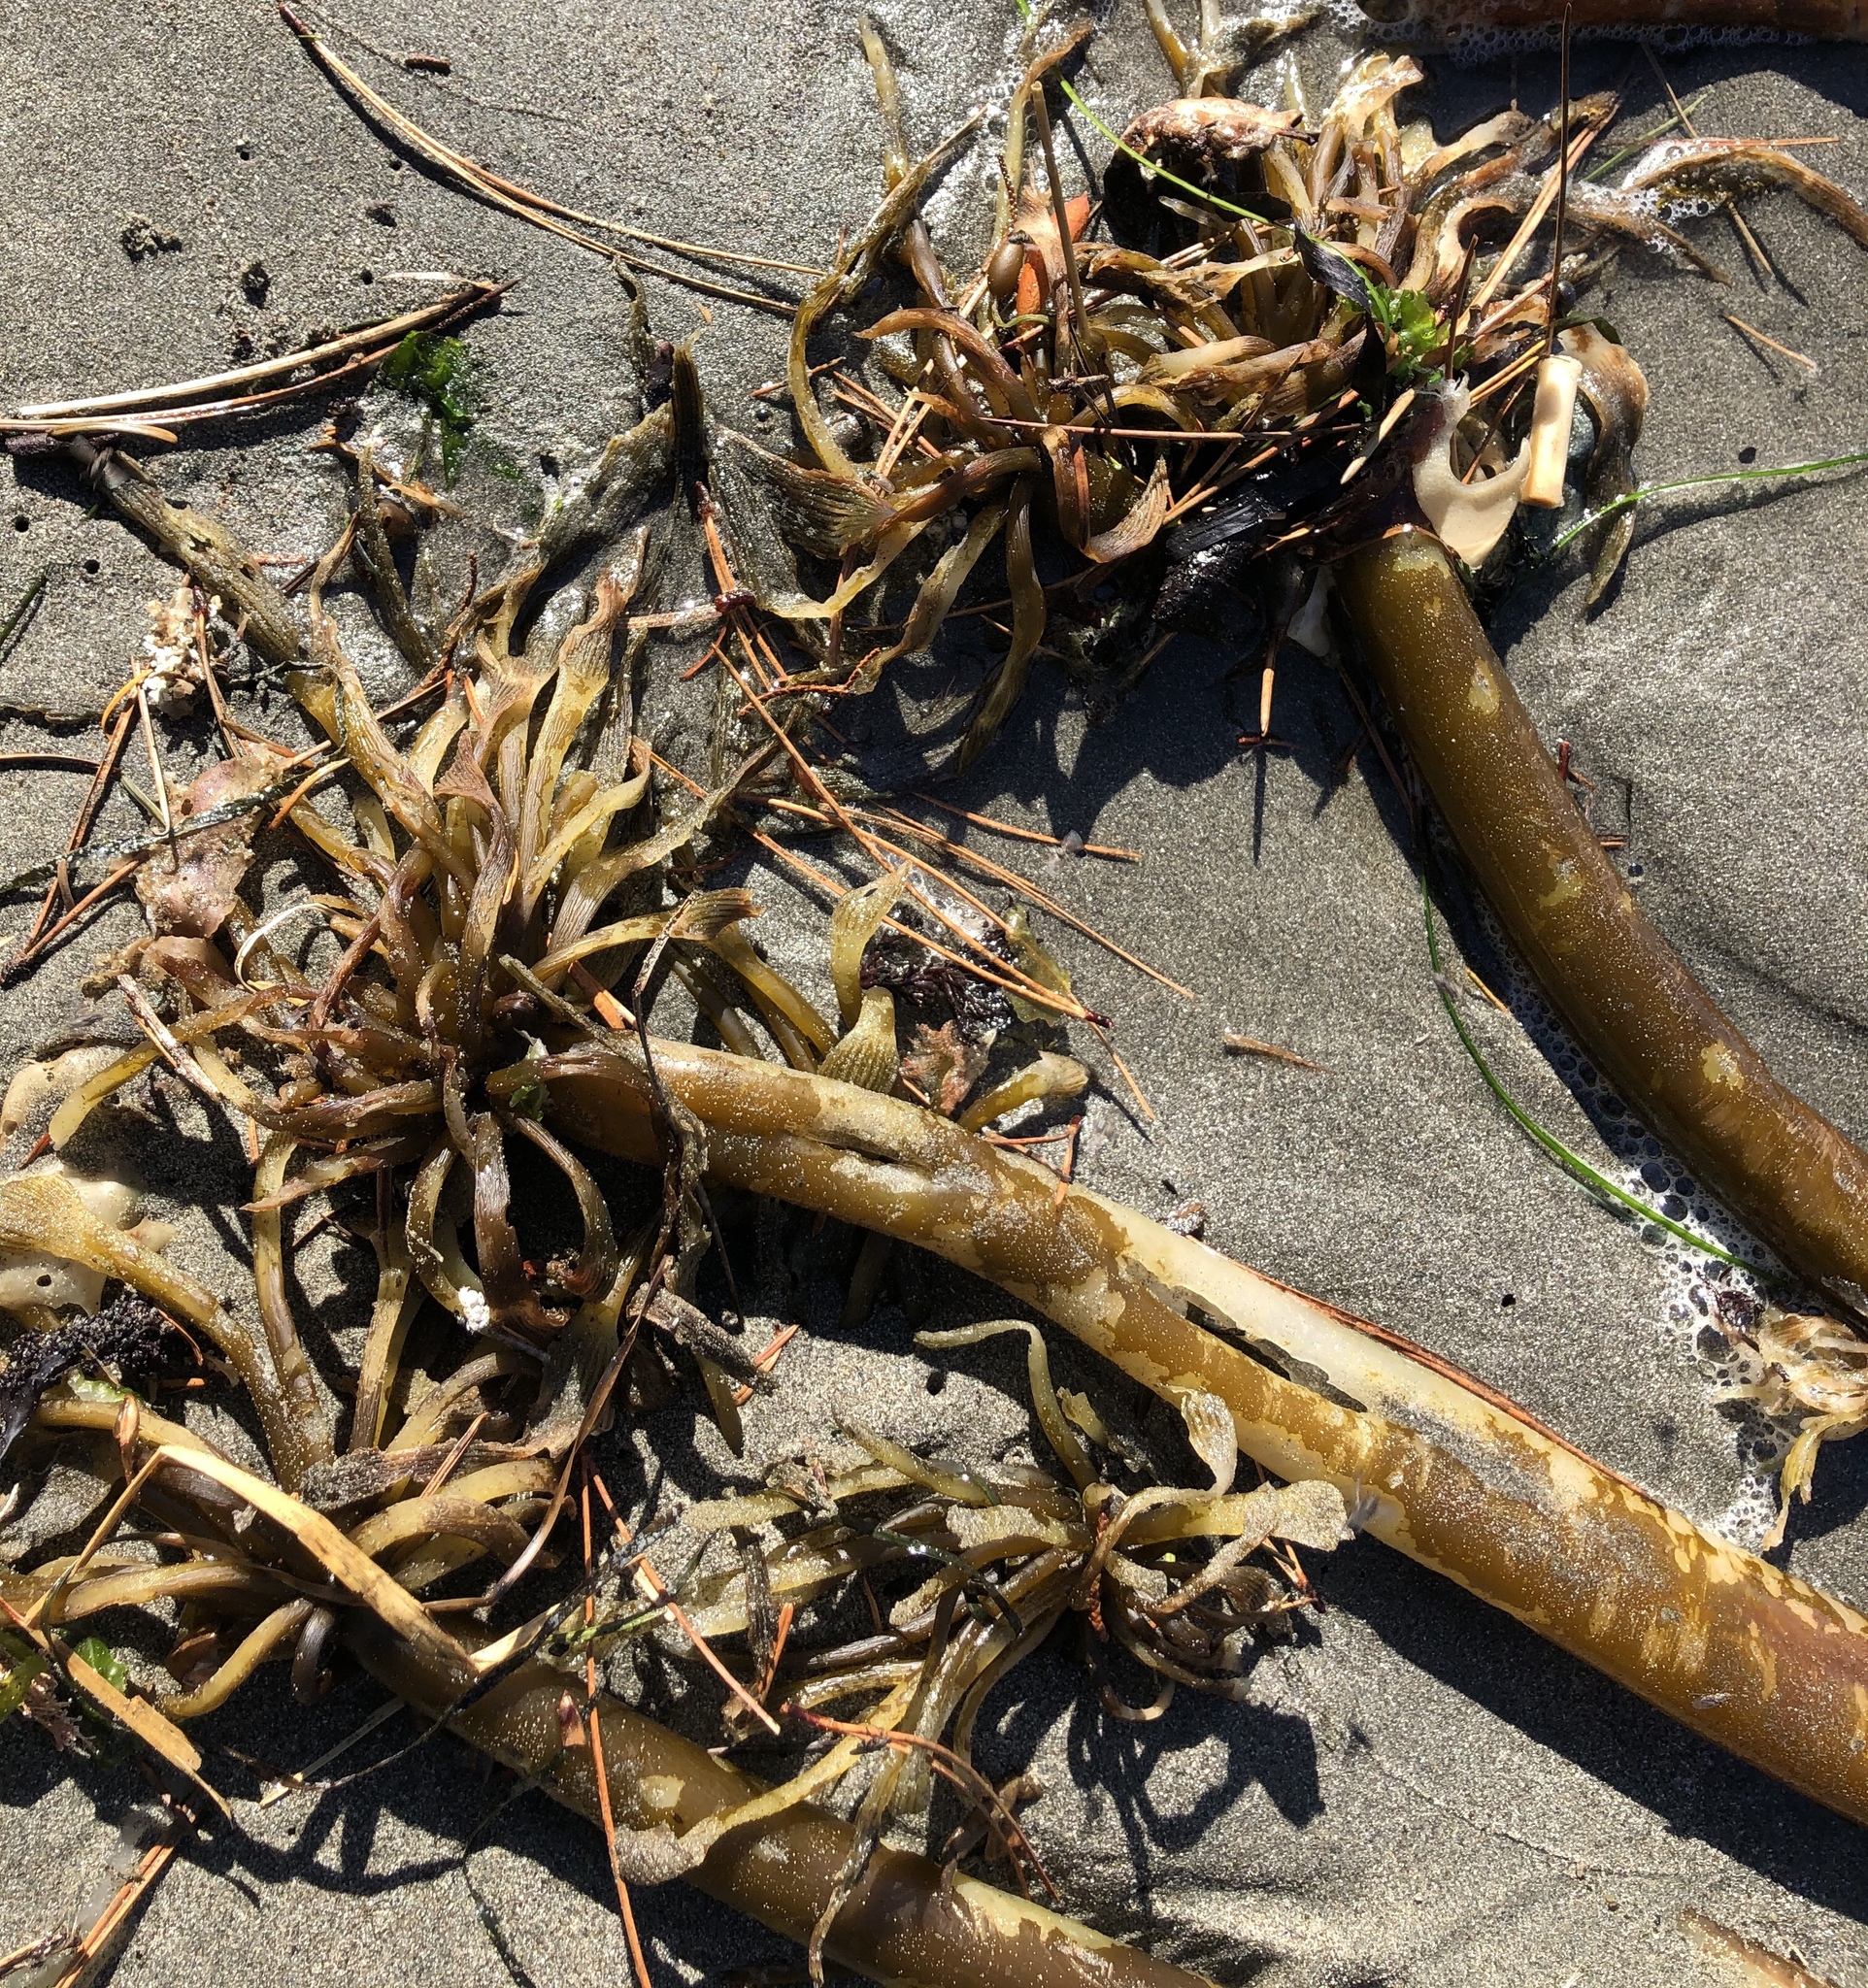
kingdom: Chromista
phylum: Ochrophyta
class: Phaeophyceae
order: Laminariales
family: Laminariaceae
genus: Postelsia
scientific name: Postelsia palmiformis
